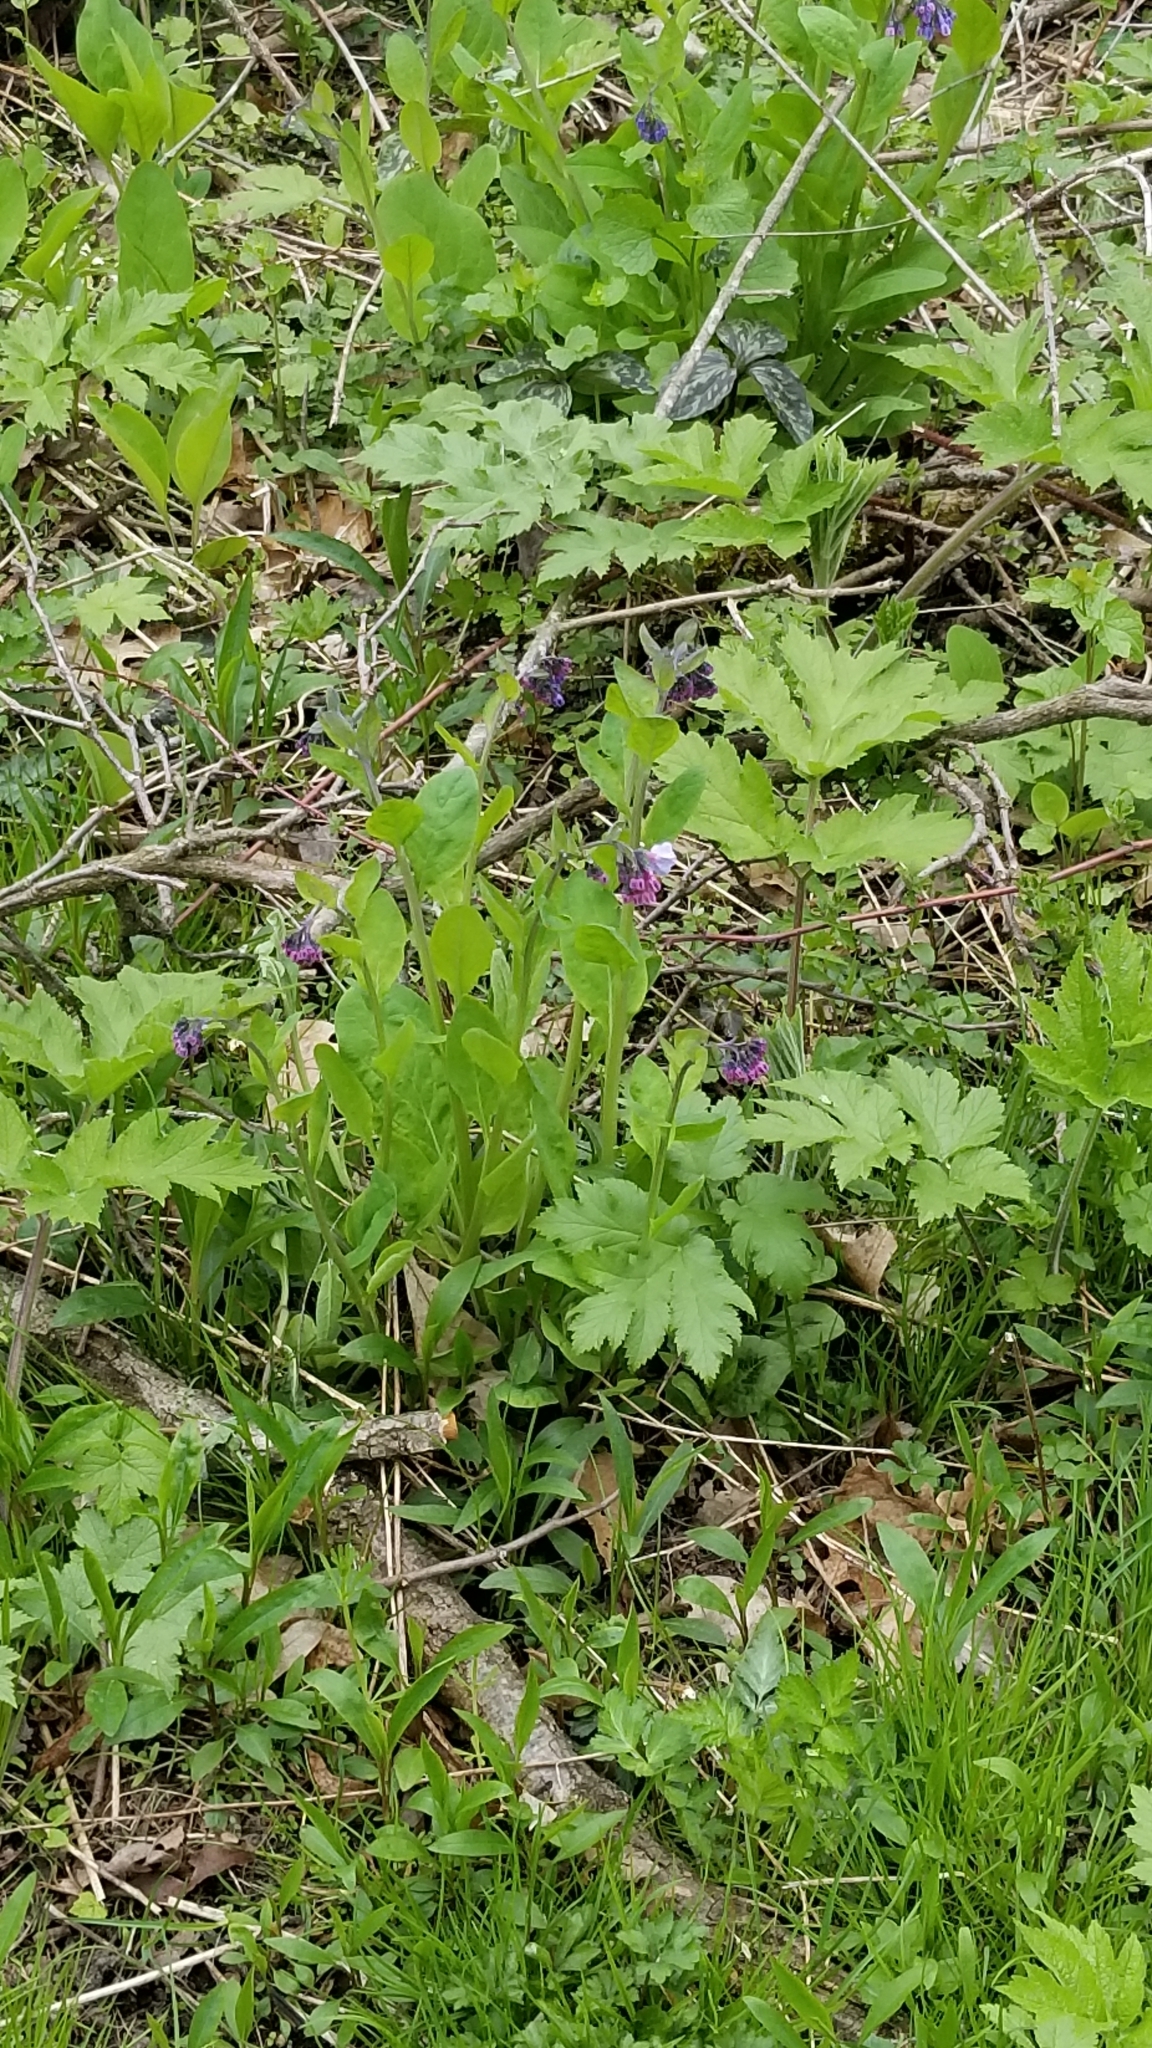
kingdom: Plantae
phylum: Tracheophyta
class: Magnoliopsida
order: Boraginales
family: Boraginaceae
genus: Mertensia
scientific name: Mertensia virginica
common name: Virginia bluebells
